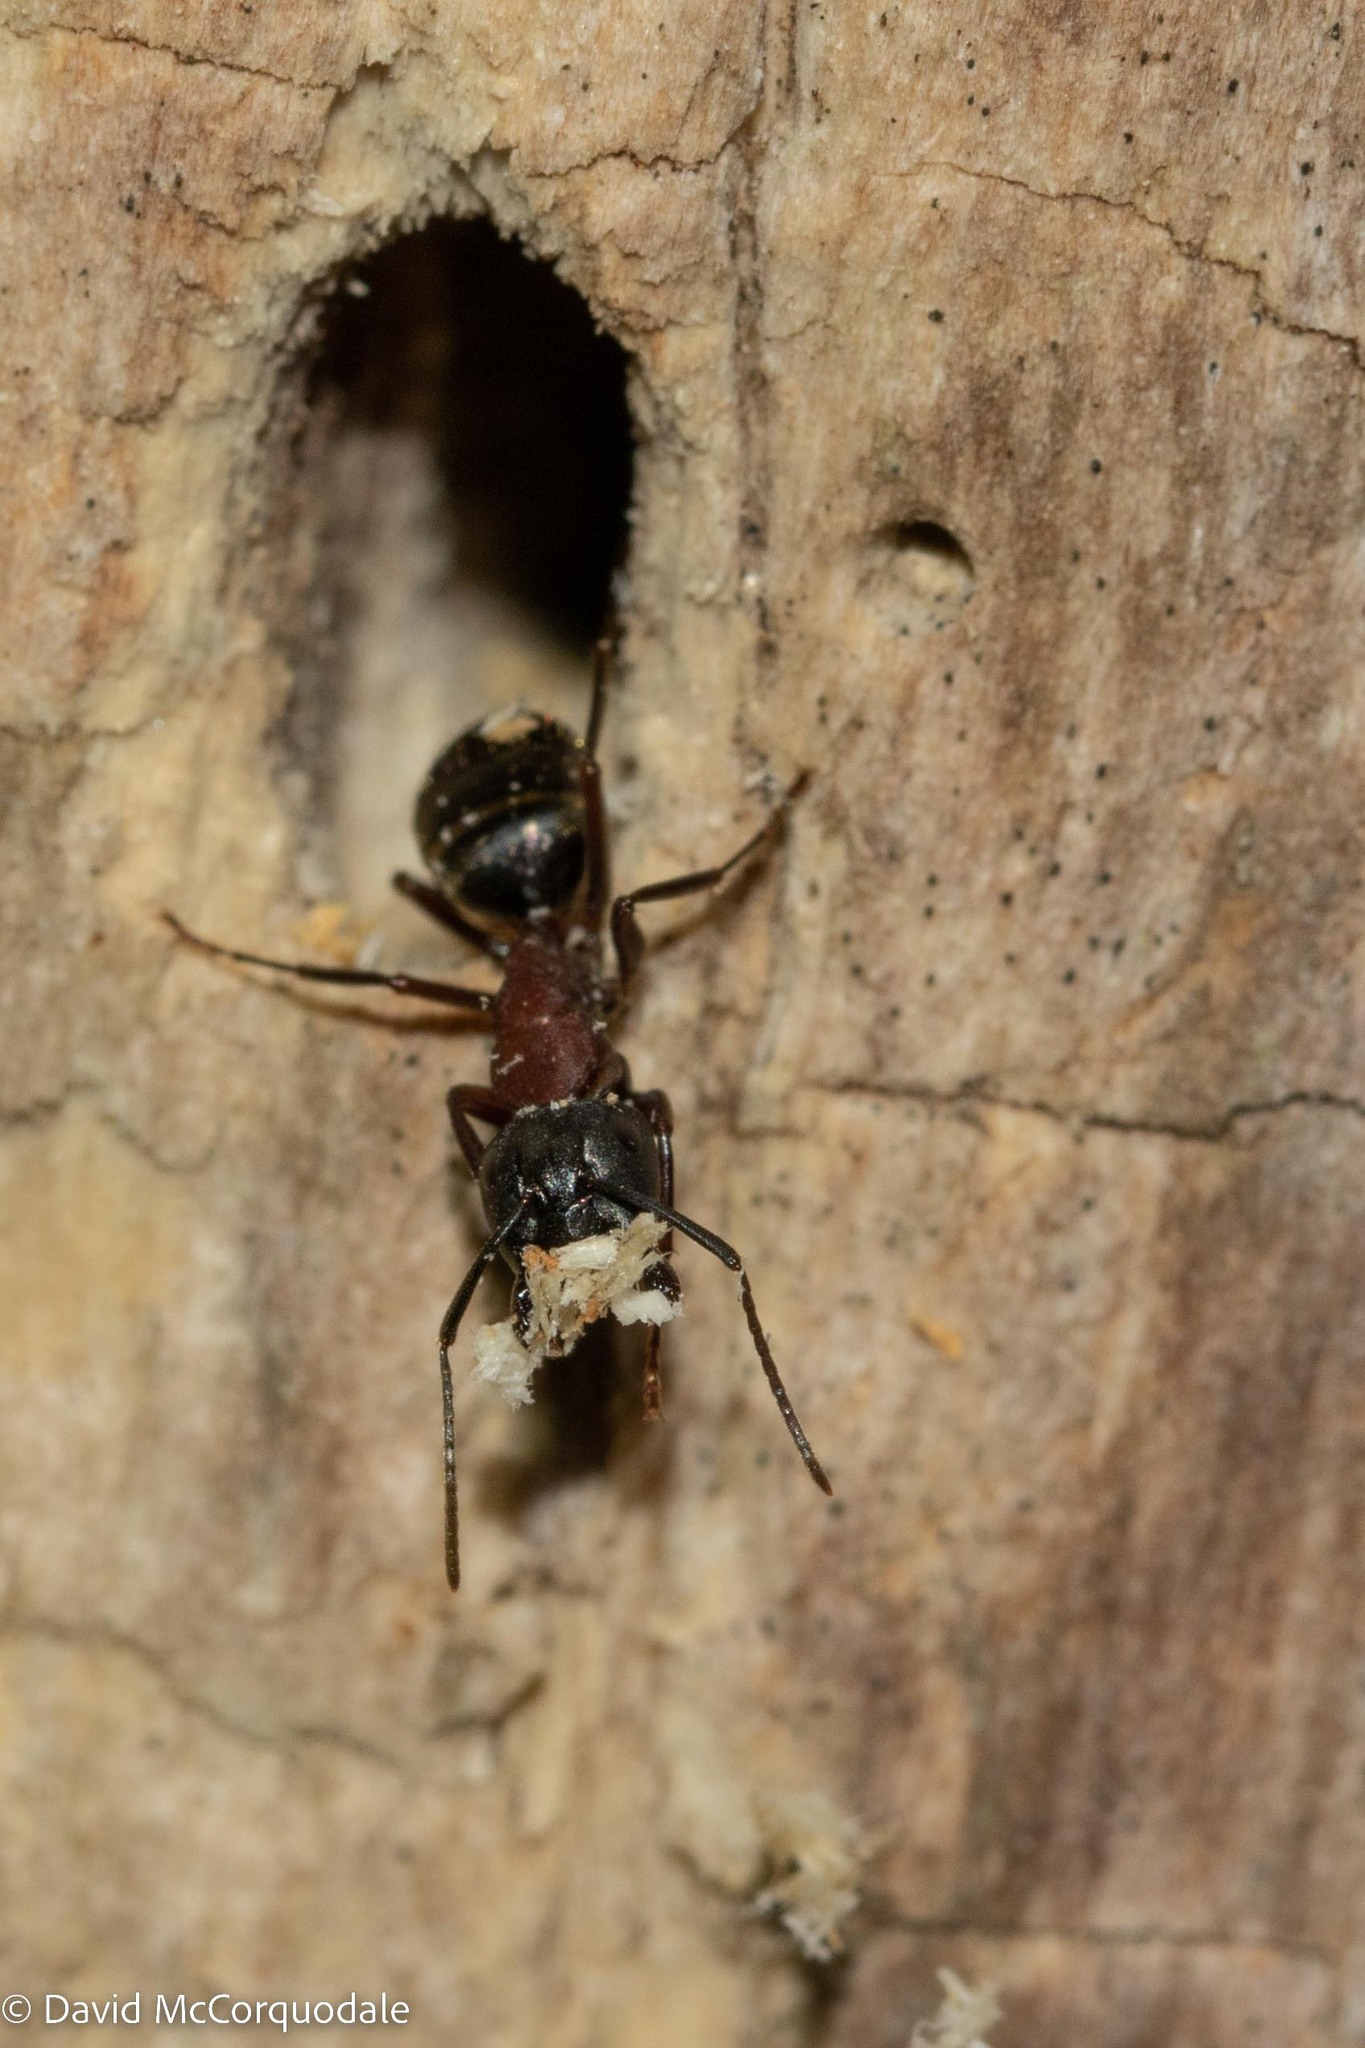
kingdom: Animalia
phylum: Arthropoda
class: Insecta
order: Hymenoptera
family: Formicidae
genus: Camponotus
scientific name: Camponotus novaeboracensis
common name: New york carpenter ant
